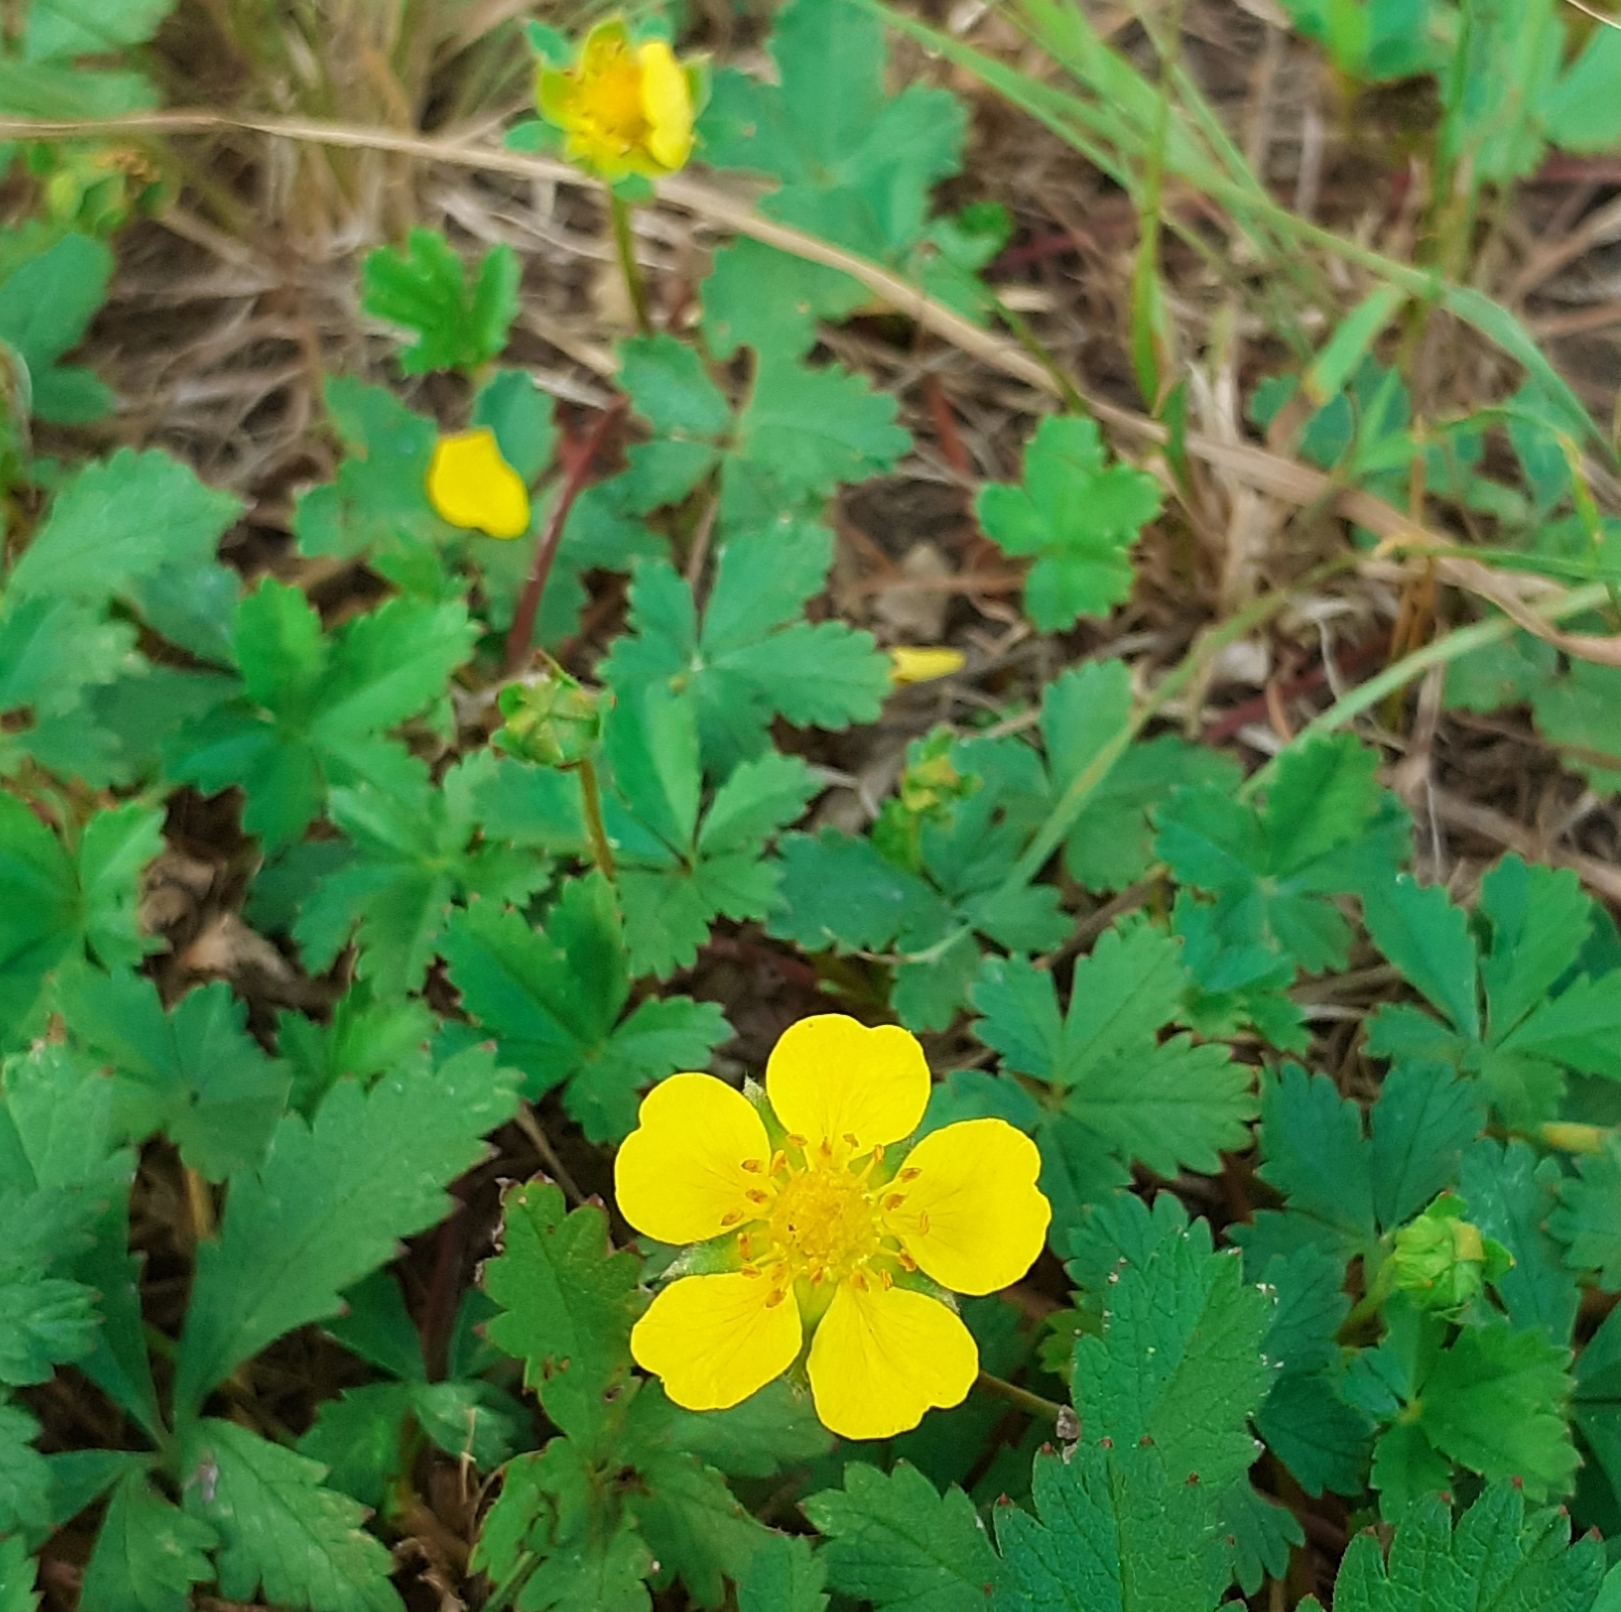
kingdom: Plantae
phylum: Tracheophyta
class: Magnoliopsida
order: Rosales
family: Rosaceae
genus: Potentilla
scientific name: Potentilla reptans
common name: Creeping cinquefoil
